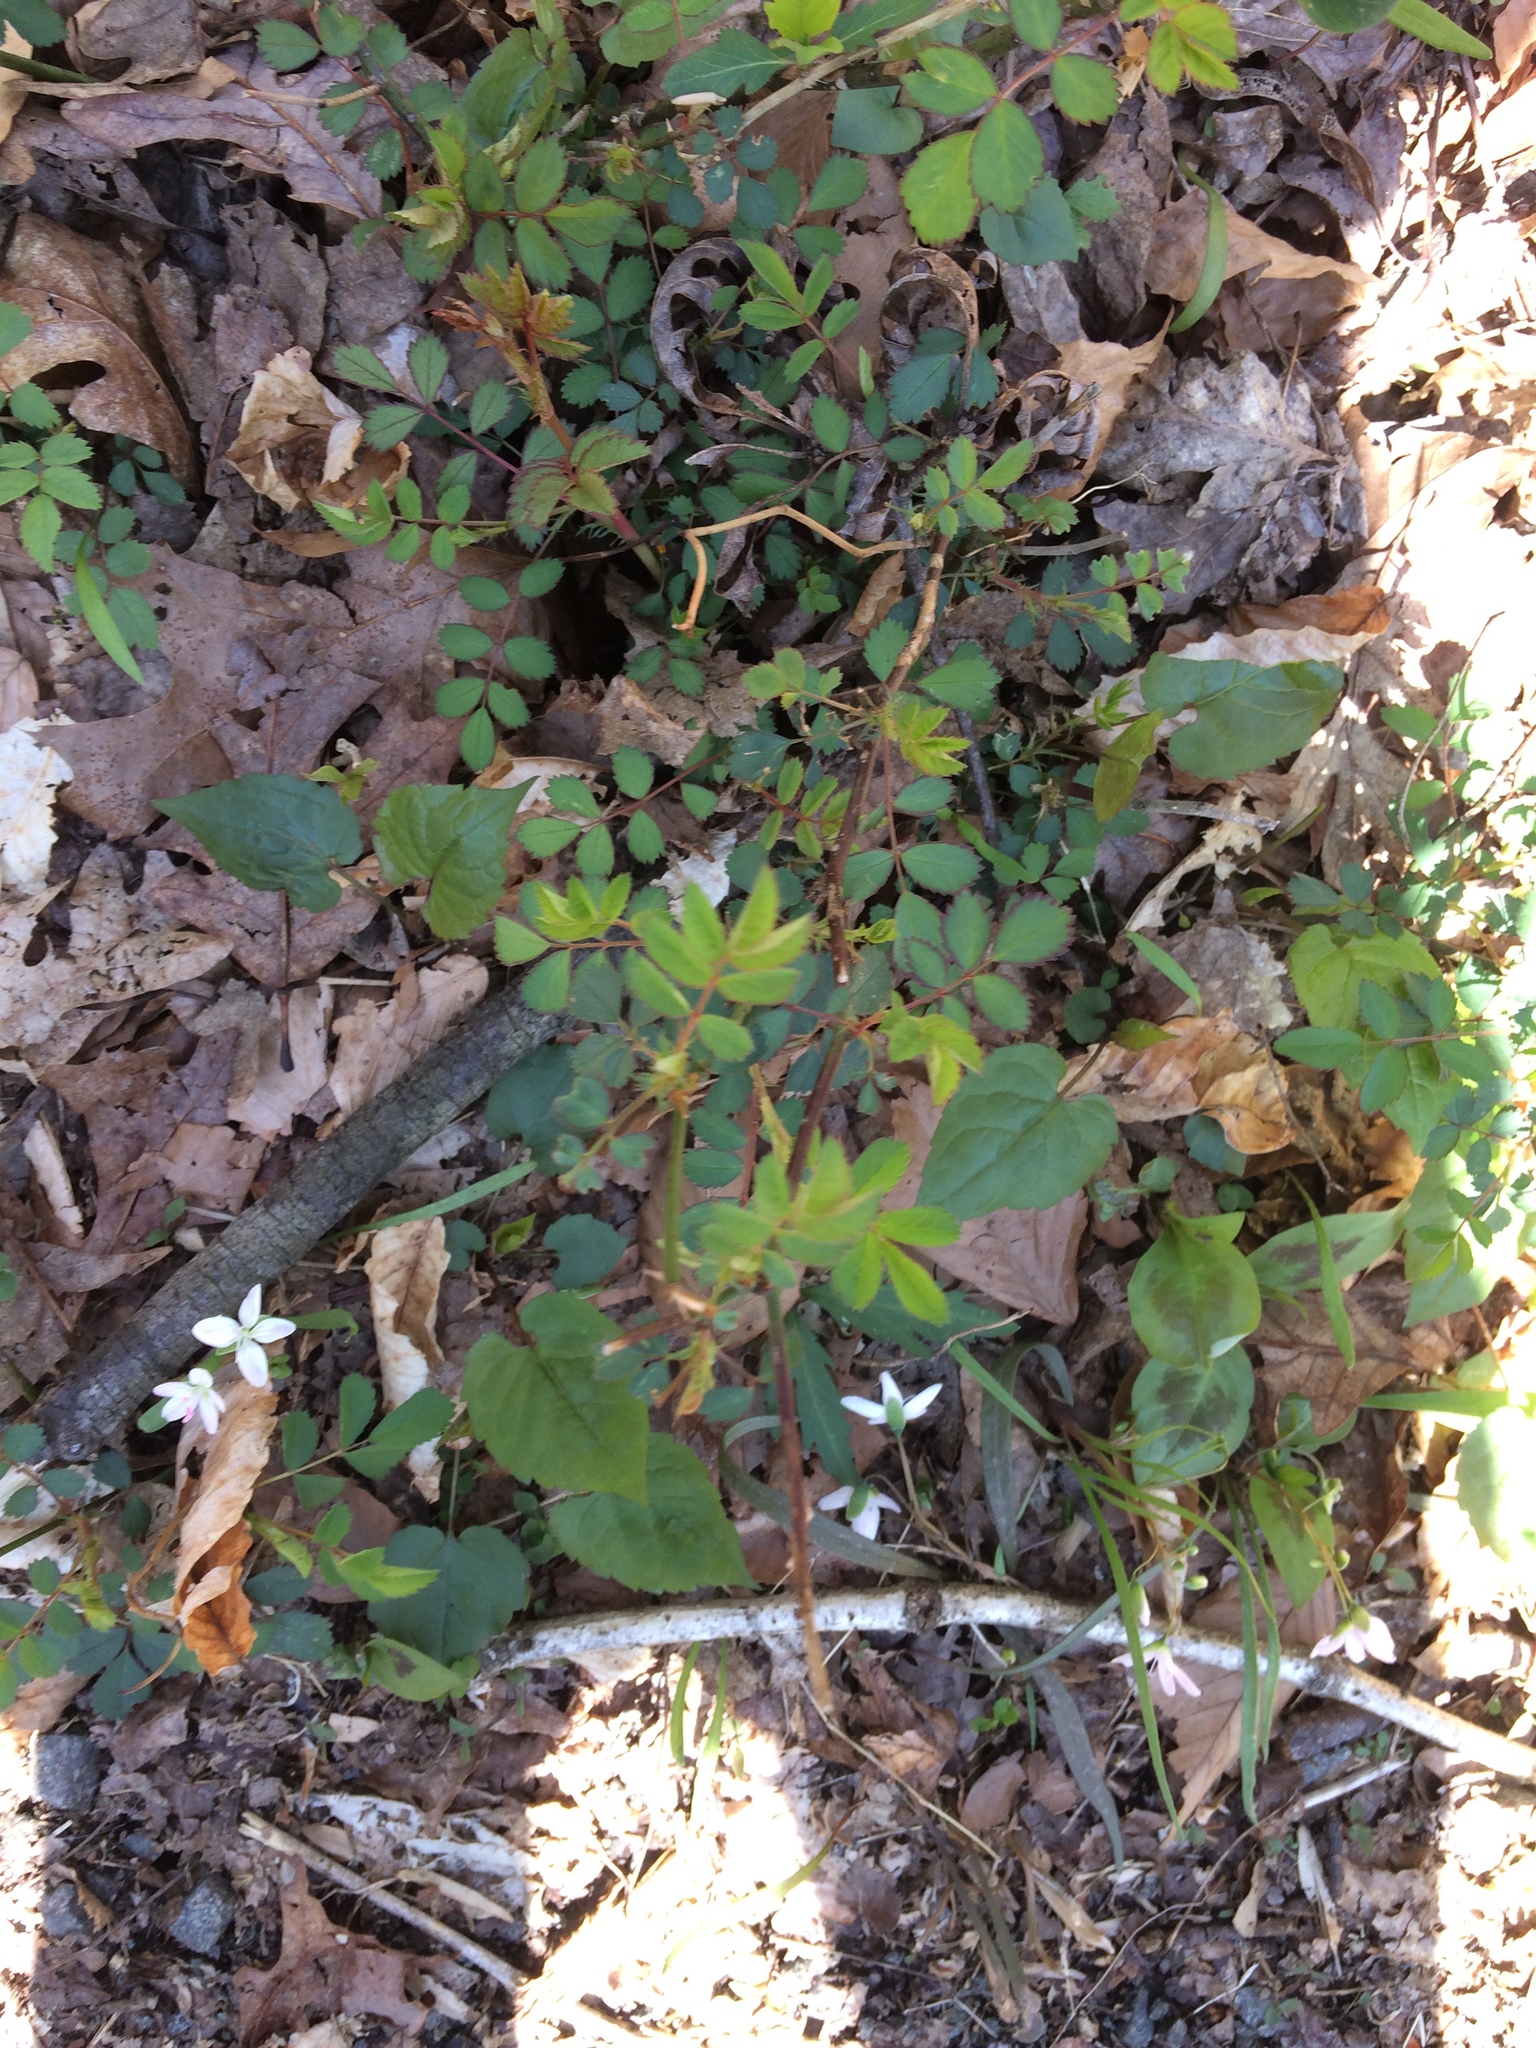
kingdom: Plantae
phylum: Tracheophyta
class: Magnoliopsida
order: Rosales
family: Rosaceae
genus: Rosa
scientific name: Rosa multiflora
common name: Multiflora rose
